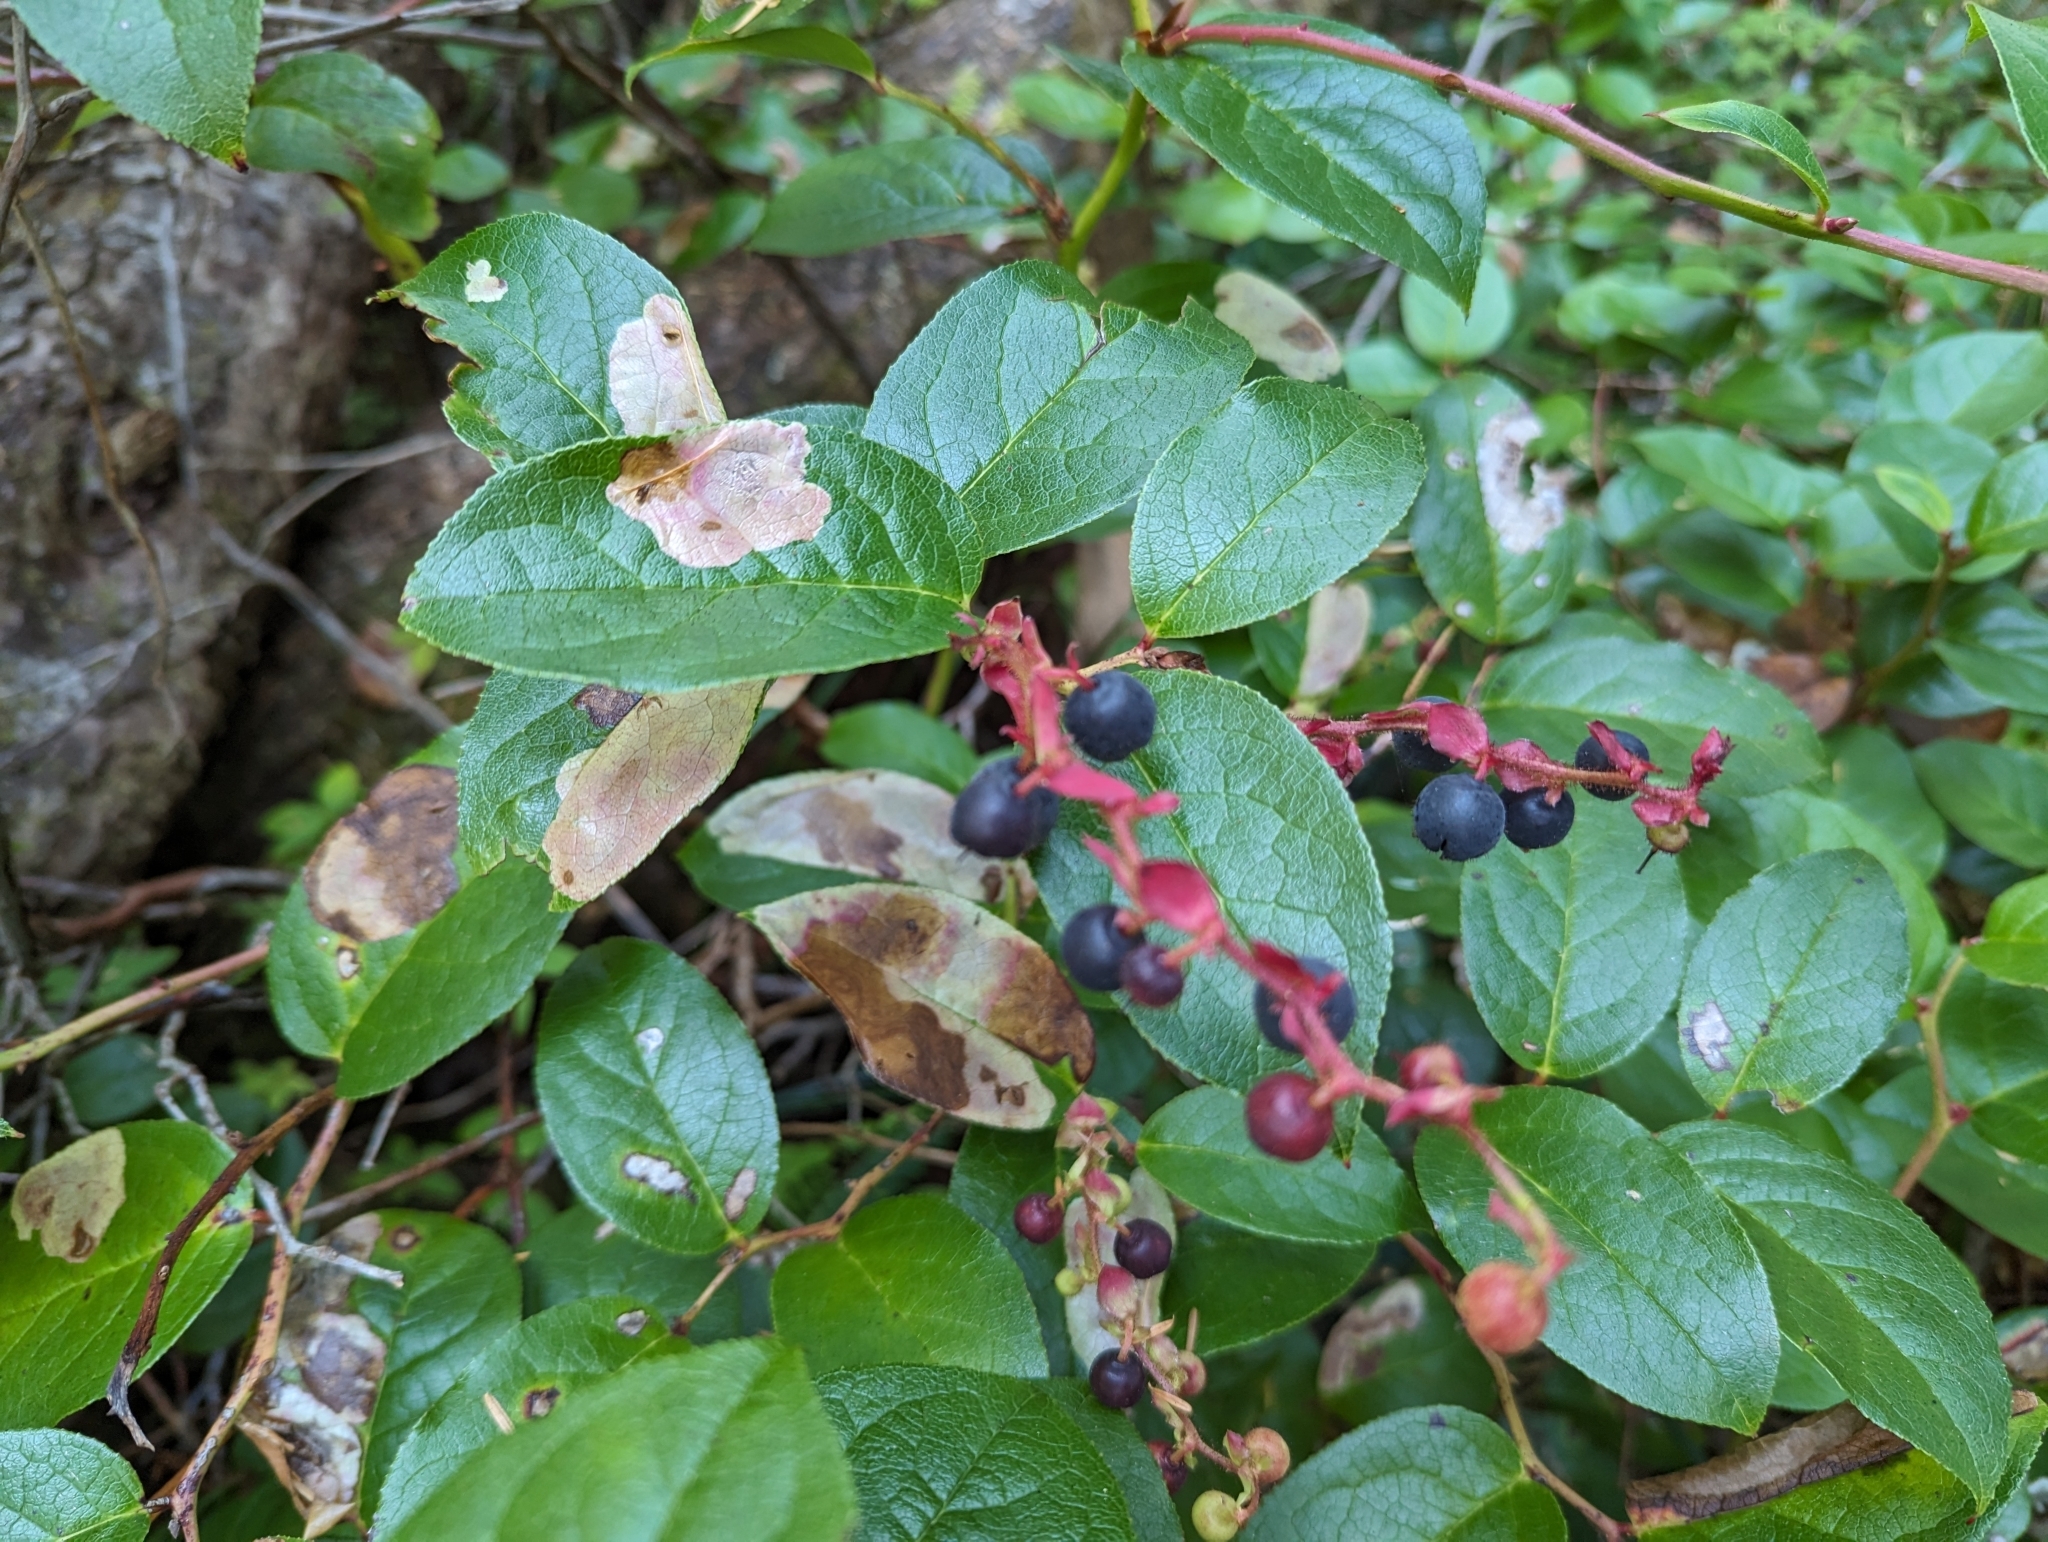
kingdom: Plantae
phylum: Tracheophyta
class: Magnoliopsida
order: Ericales
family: Ericaceae
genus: Gaultheria
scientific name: Gaultheria shallon
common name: Shallon
